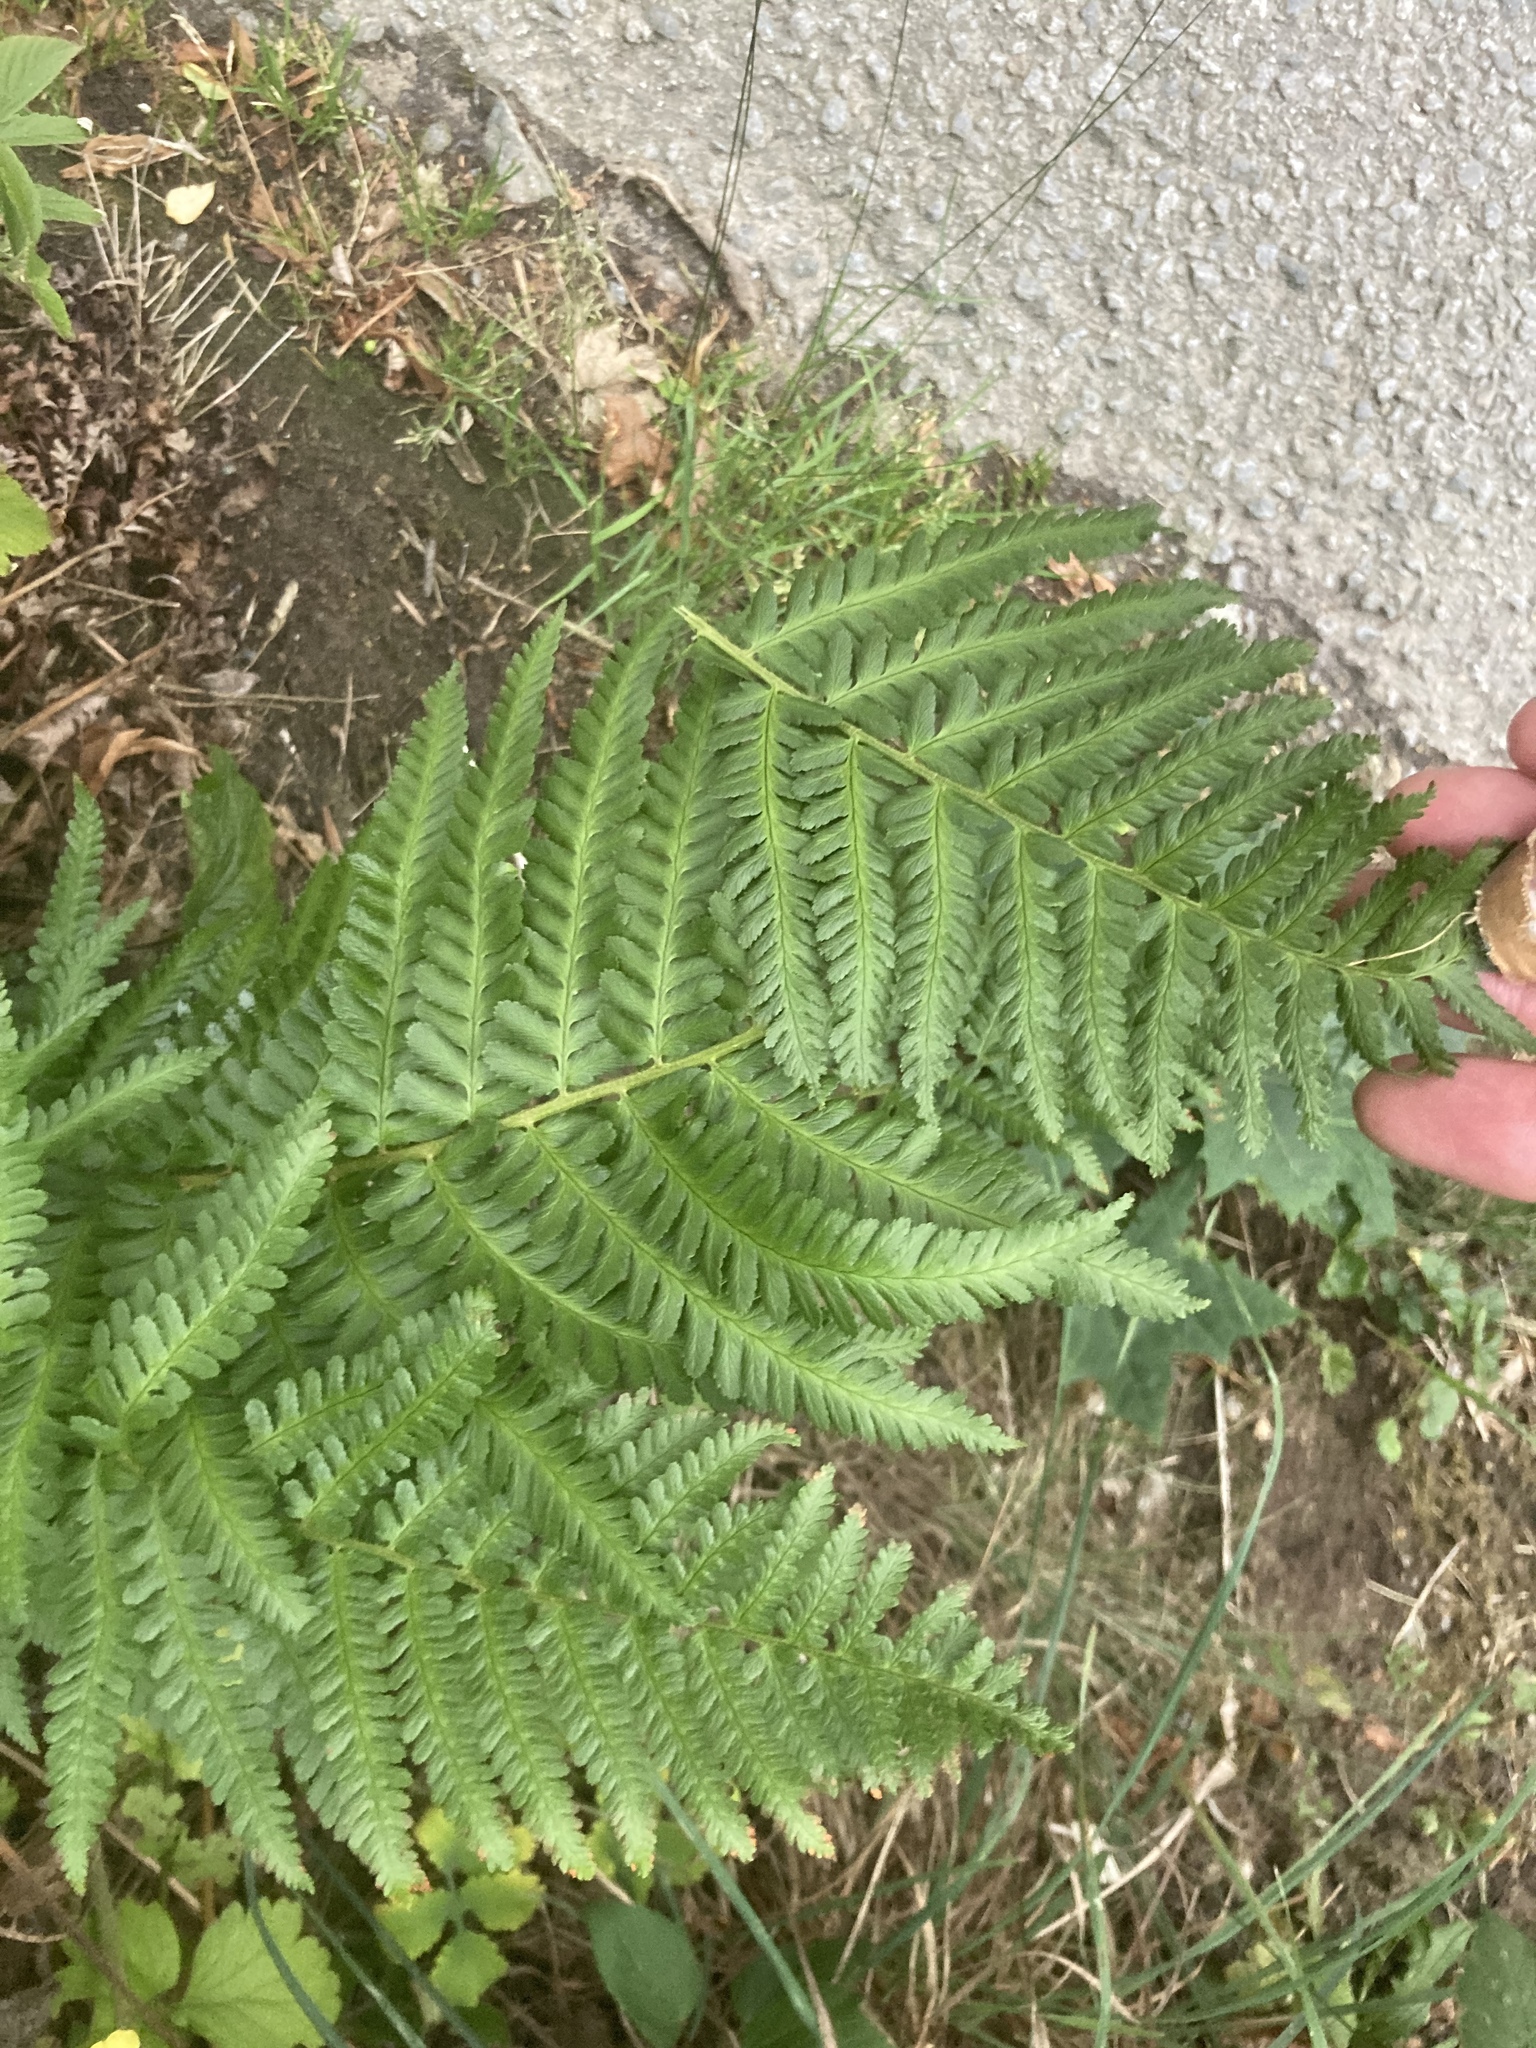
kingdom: Plantae
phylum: Tracheophyta
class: Polypodiopsida
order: Polypodiales
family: Dryopteridaceae
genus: Dryopteris
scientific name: Dryopteris filix-mas
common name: Male fern
